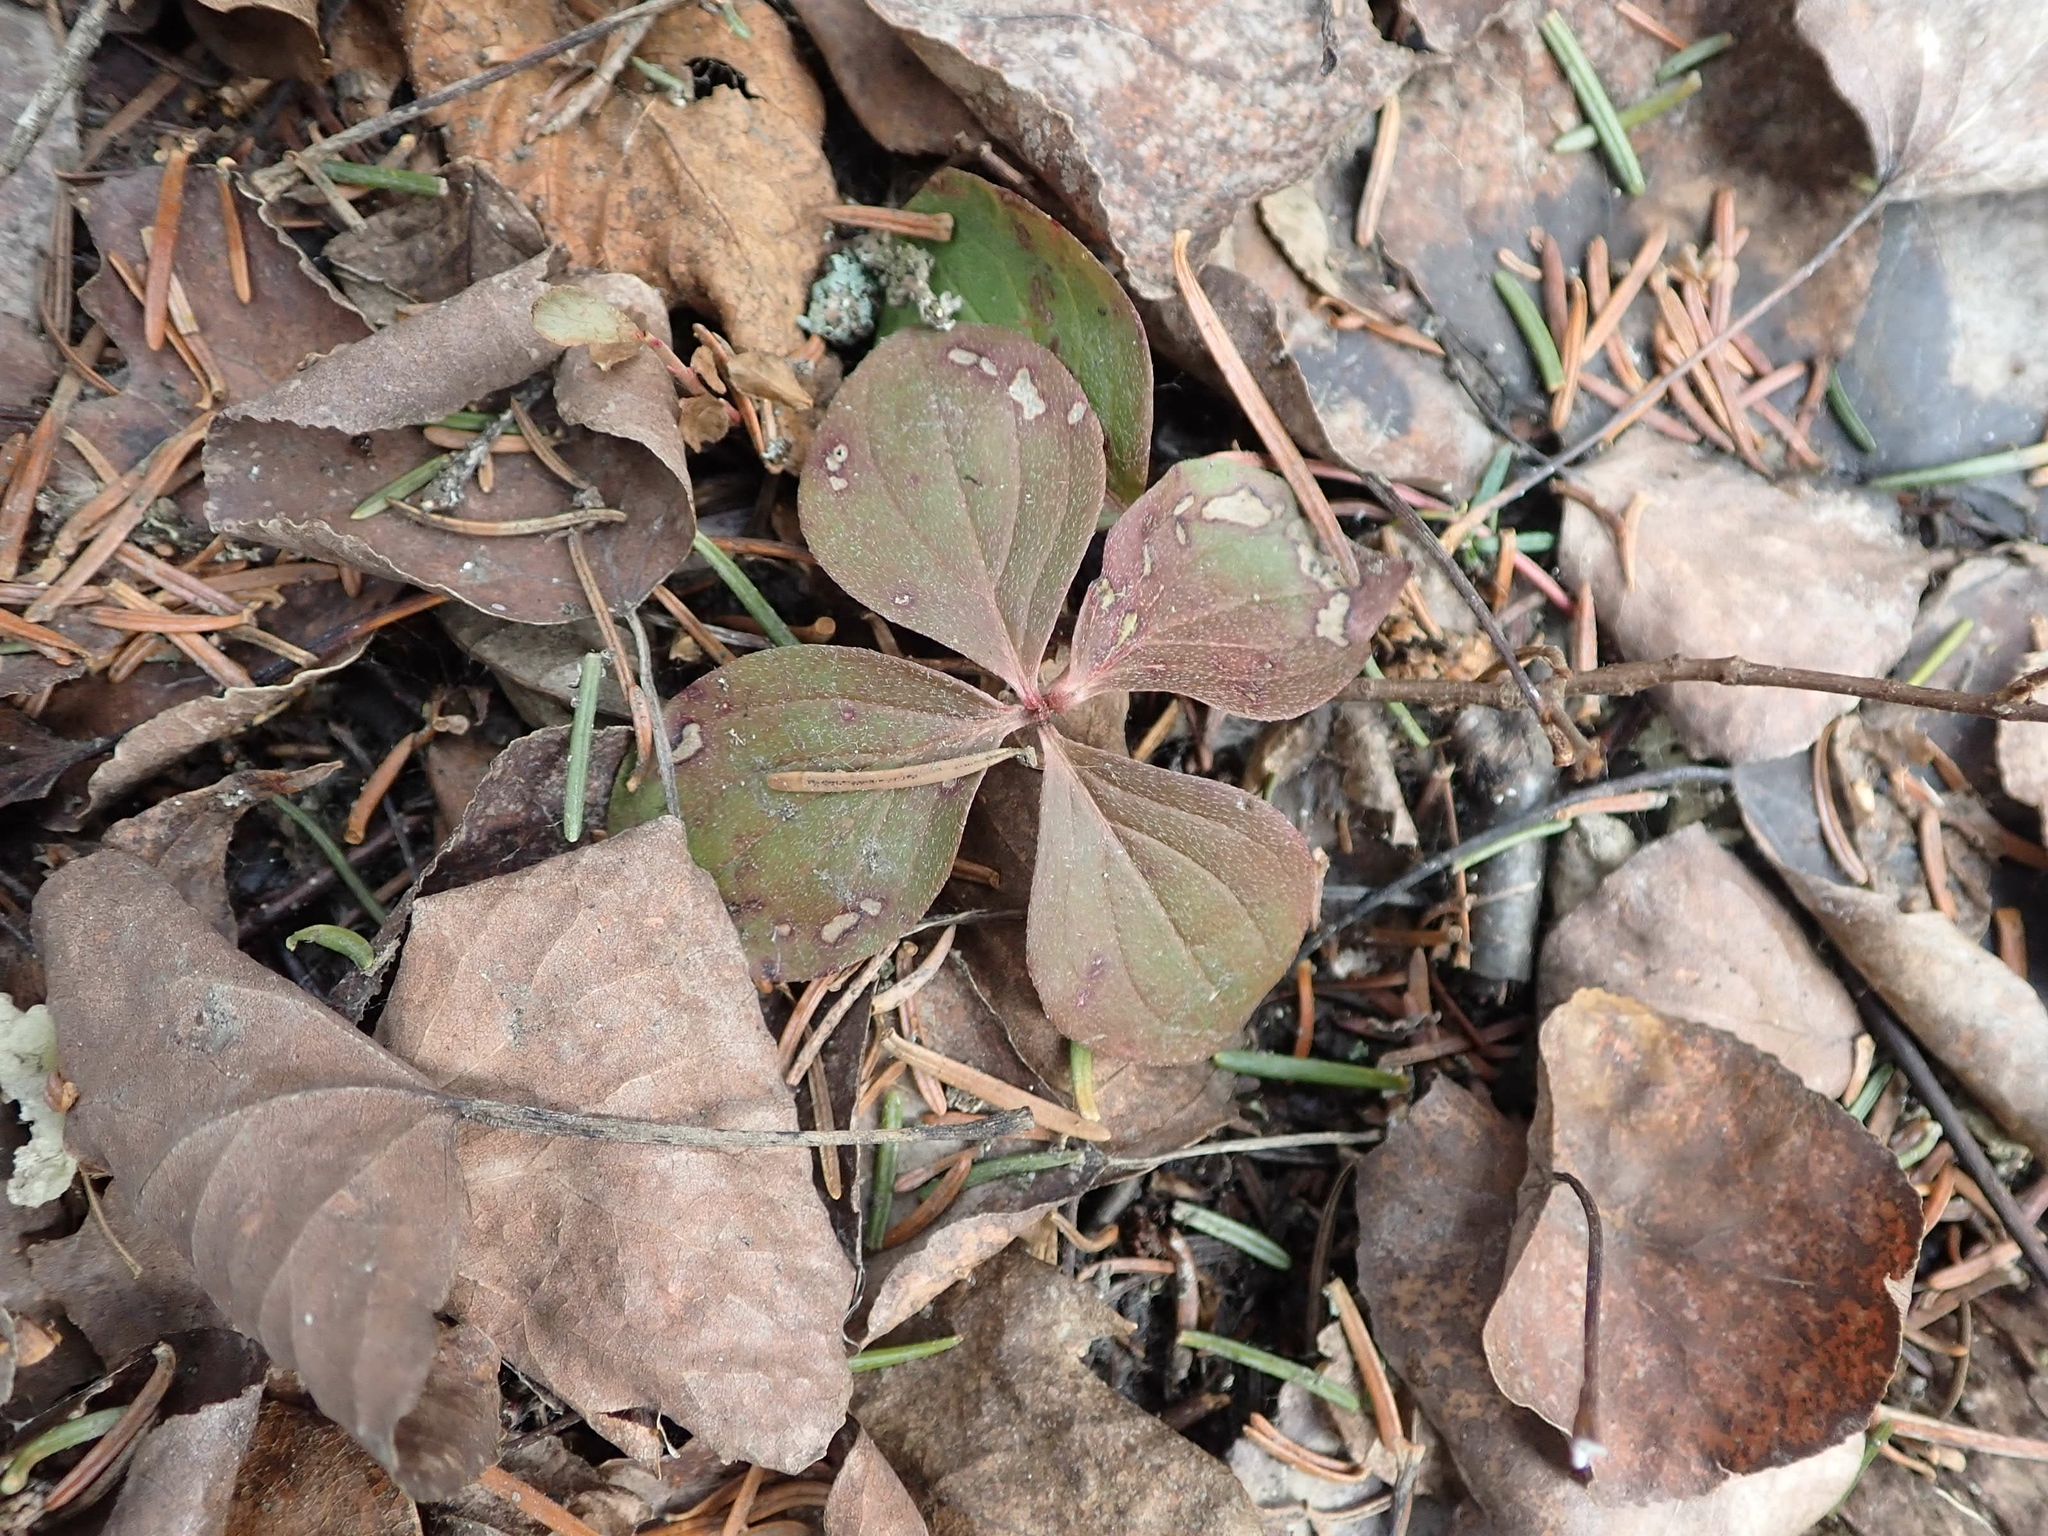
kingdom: Plantae
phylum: Tracheophyta
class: Magnoliopsida
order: Cornales
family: Cornaceae
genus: Cornus
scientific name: Cornus canadensis
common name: Creeping dogwood
